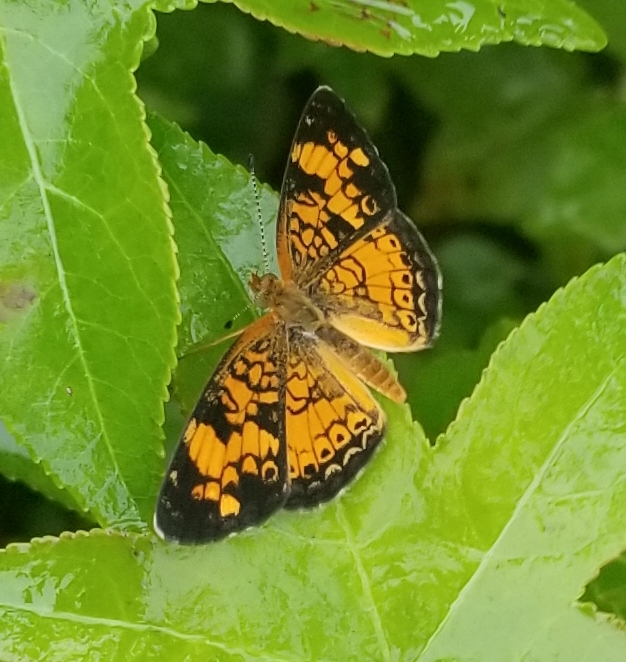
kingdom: Animalia
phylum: Arthropoda
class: Insecta
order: Lepidoptera
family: Nymphalidae
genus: Phyciodes
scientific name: Phyciodes tharos
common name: Pearl crescent
